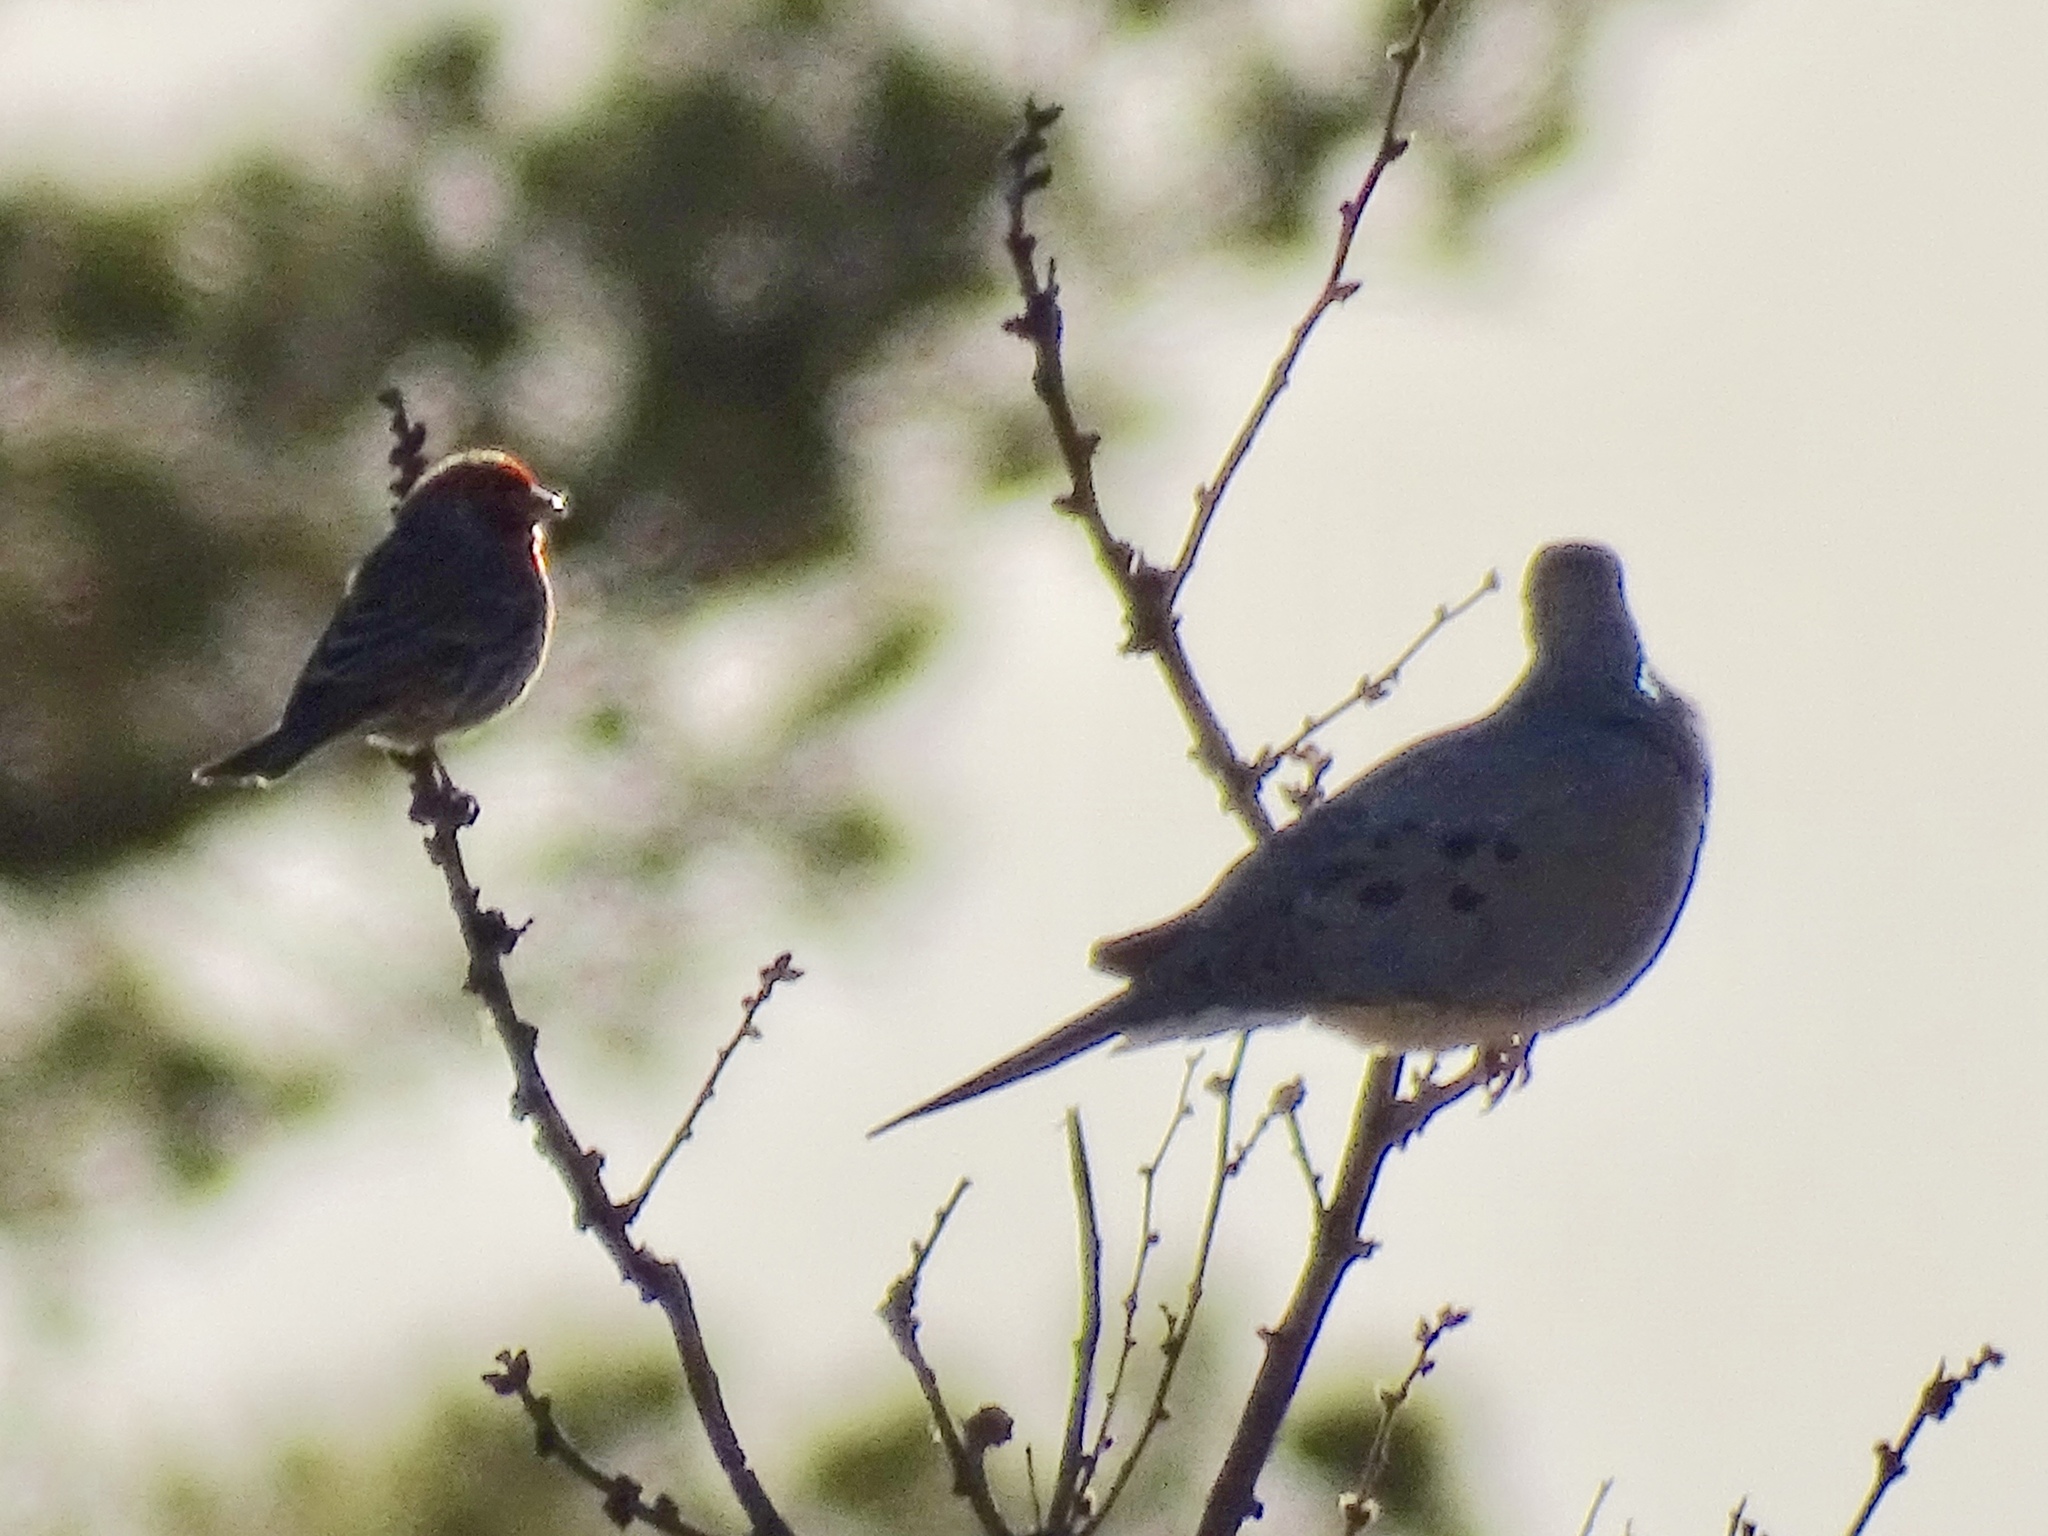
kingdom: Animalia
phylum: Chordata
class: Aves
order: Passeriformes
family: Fringillidae
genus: Haemorhous
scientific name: Haemorhous mexicanus
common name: House finch
